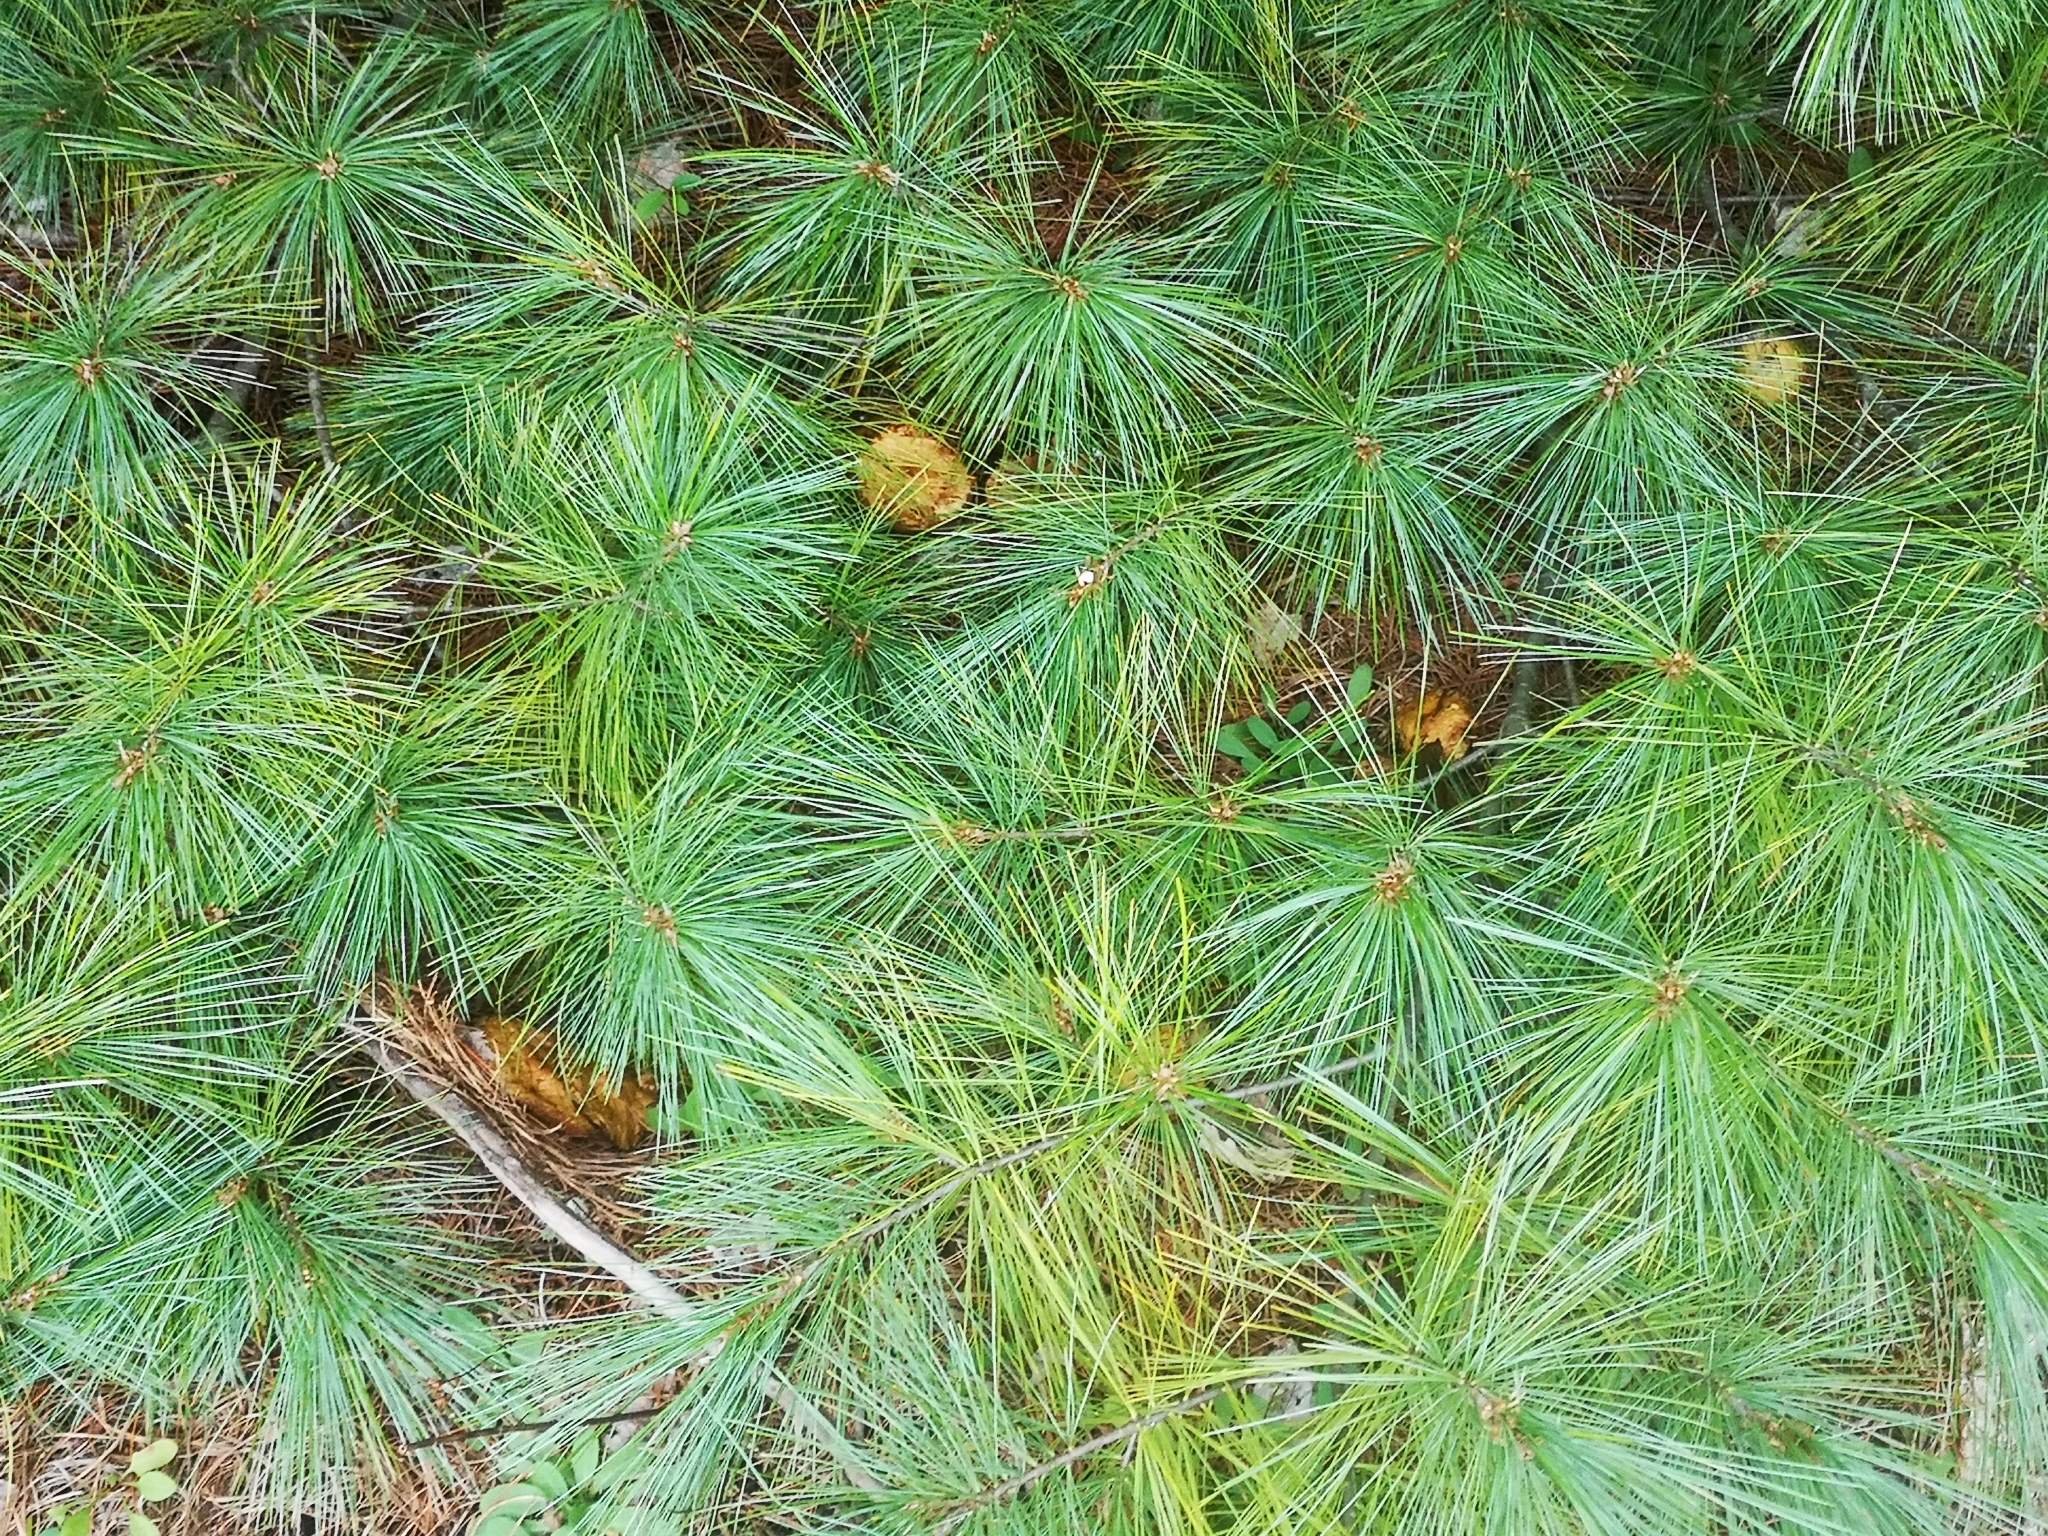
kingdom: Plantae
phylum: Tracheophyta
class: Pinopsida
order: Pinales
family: Pinaceae
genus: Pinus
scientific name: Pinus strobus
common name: Weymouth pine
